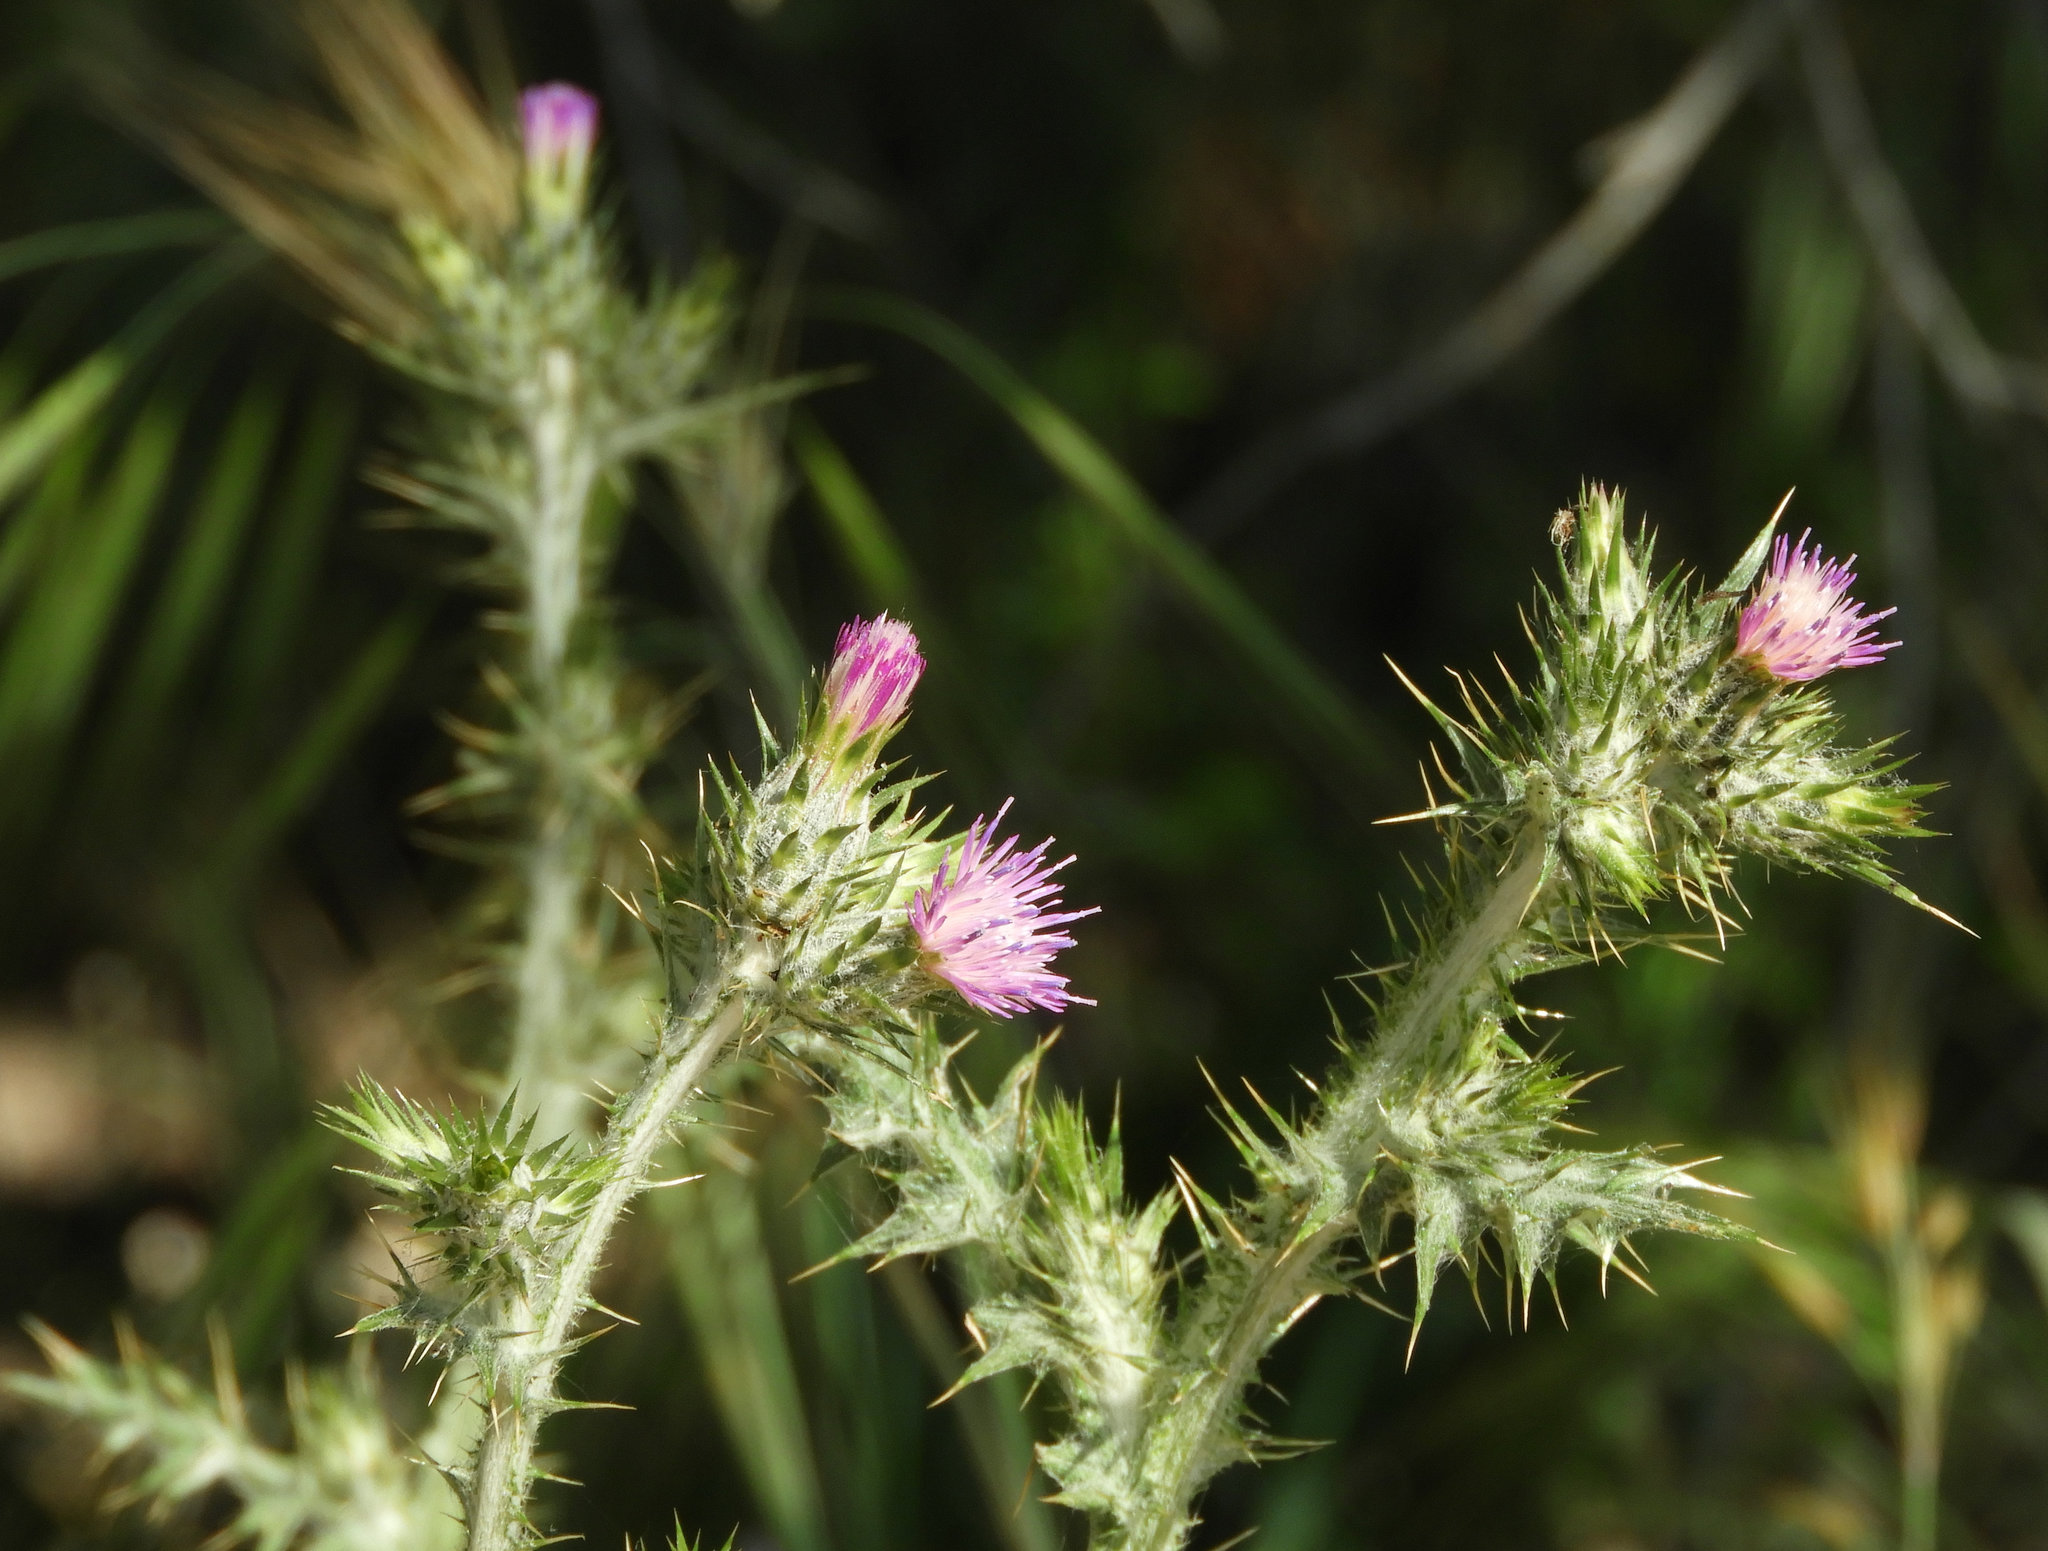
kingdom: Plantae
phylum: Tracheophyta
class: Magnoliopsida
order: Asterales
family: Asteraceae
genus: Carduus
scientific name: Carduus pycnocephalus
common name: Plymouth thistle
